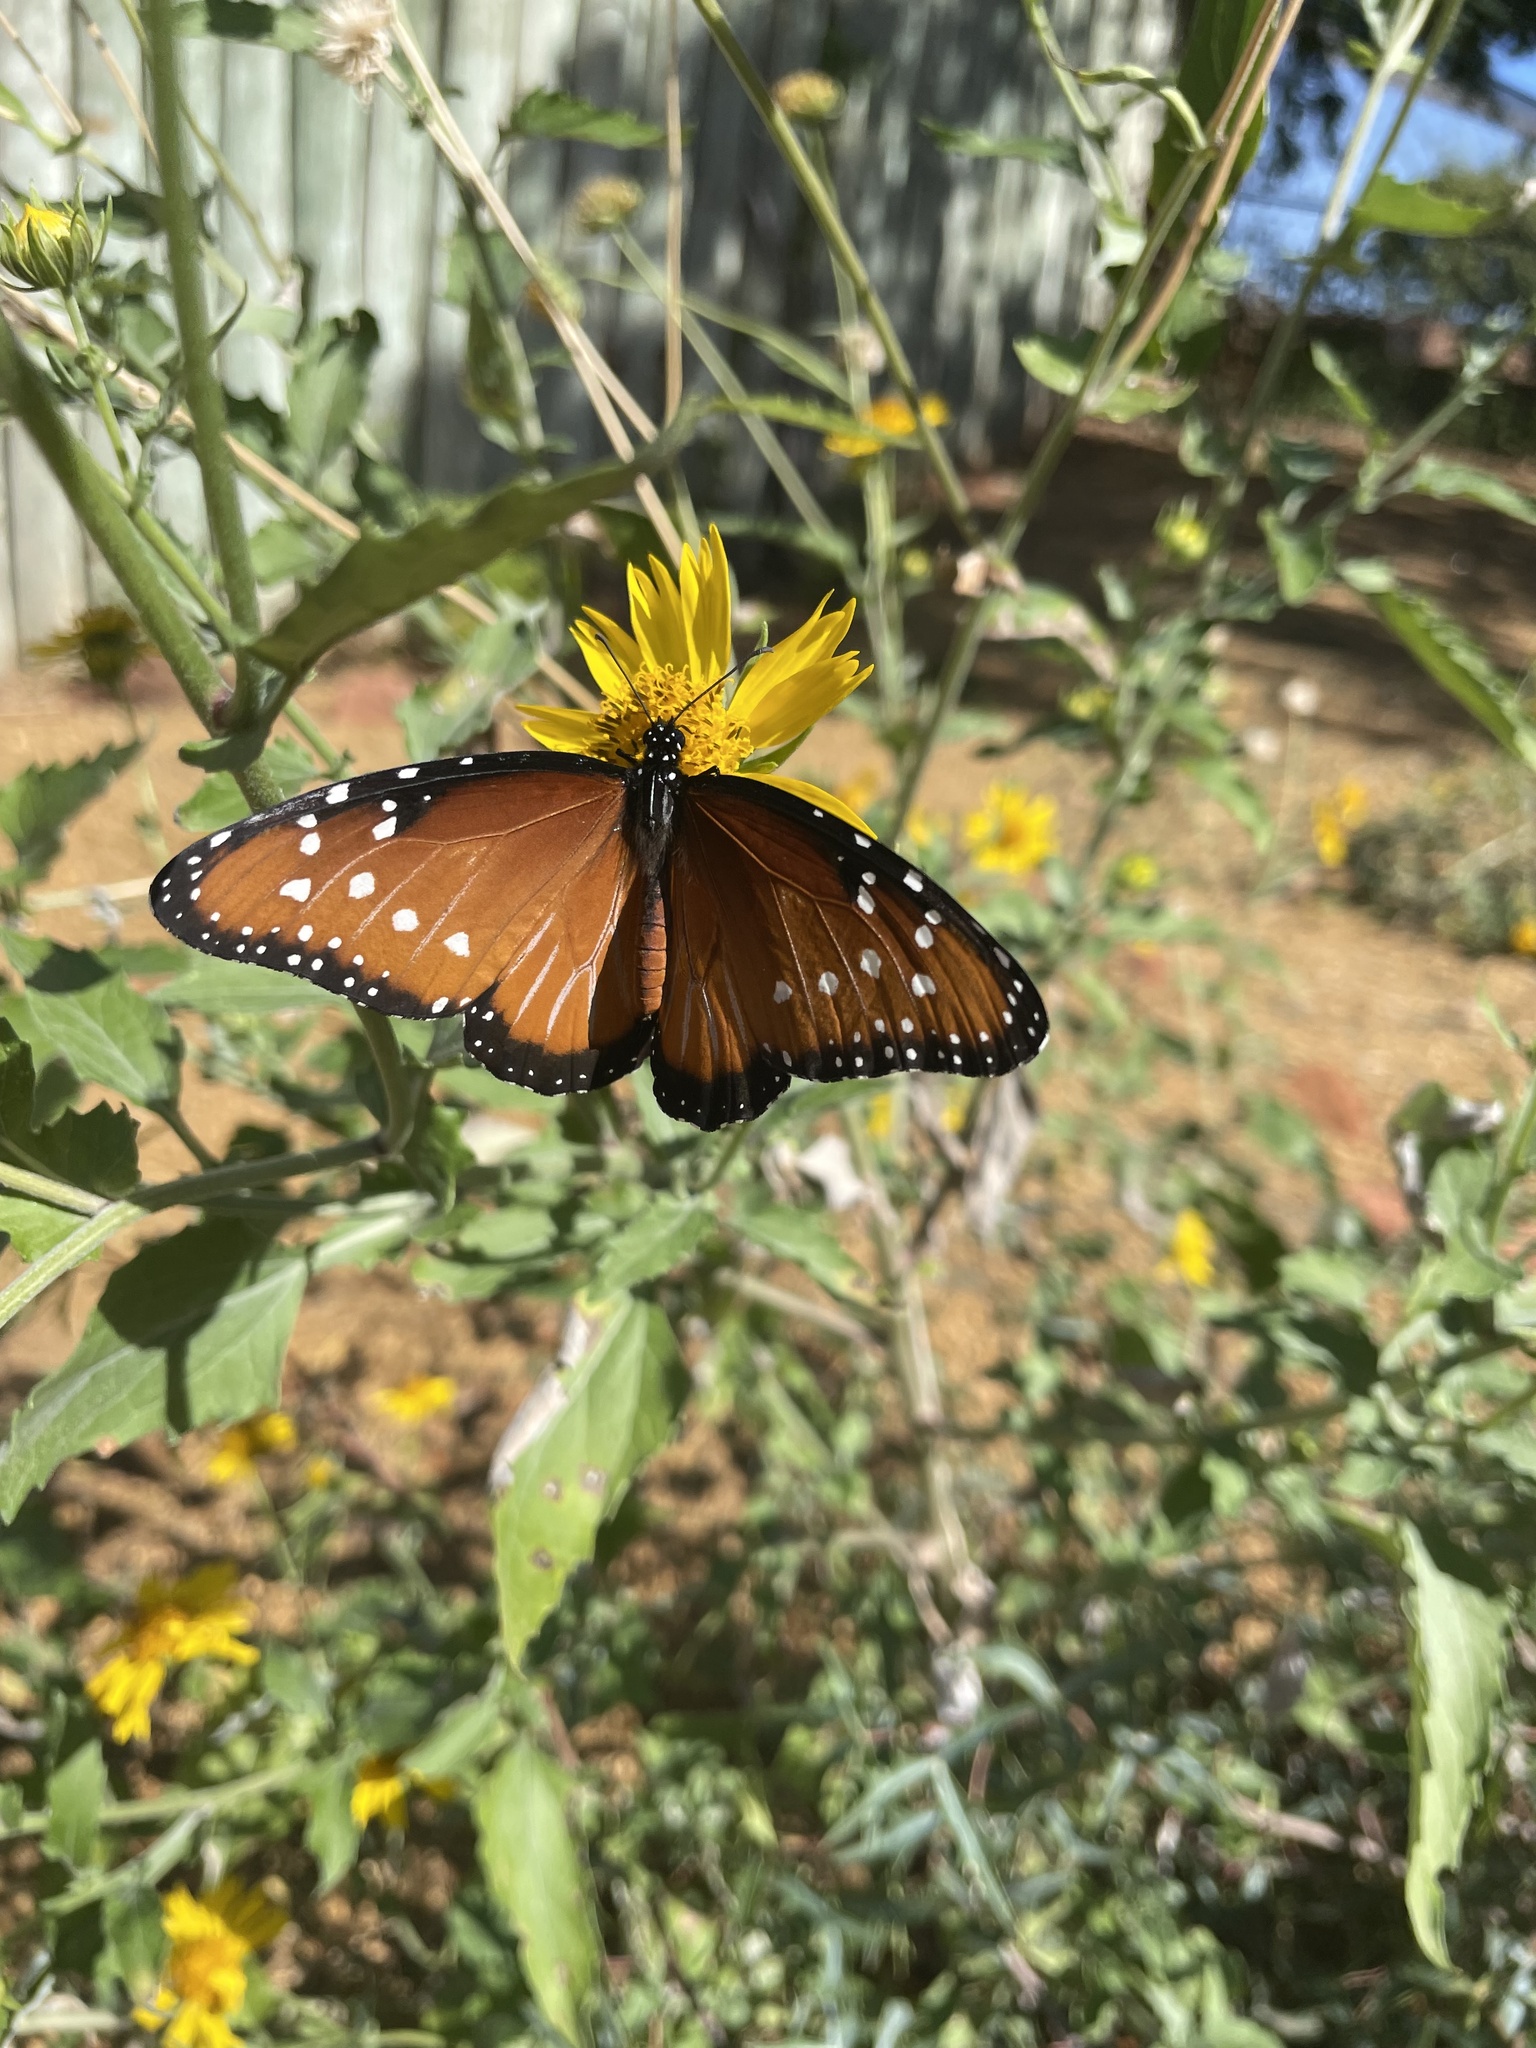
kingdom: Animalia
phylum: Arthropoda
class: Insecta
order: Lepidoptera
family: Nymphalidae
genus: Danaus
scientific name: Danaus gilippus
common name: Queen
